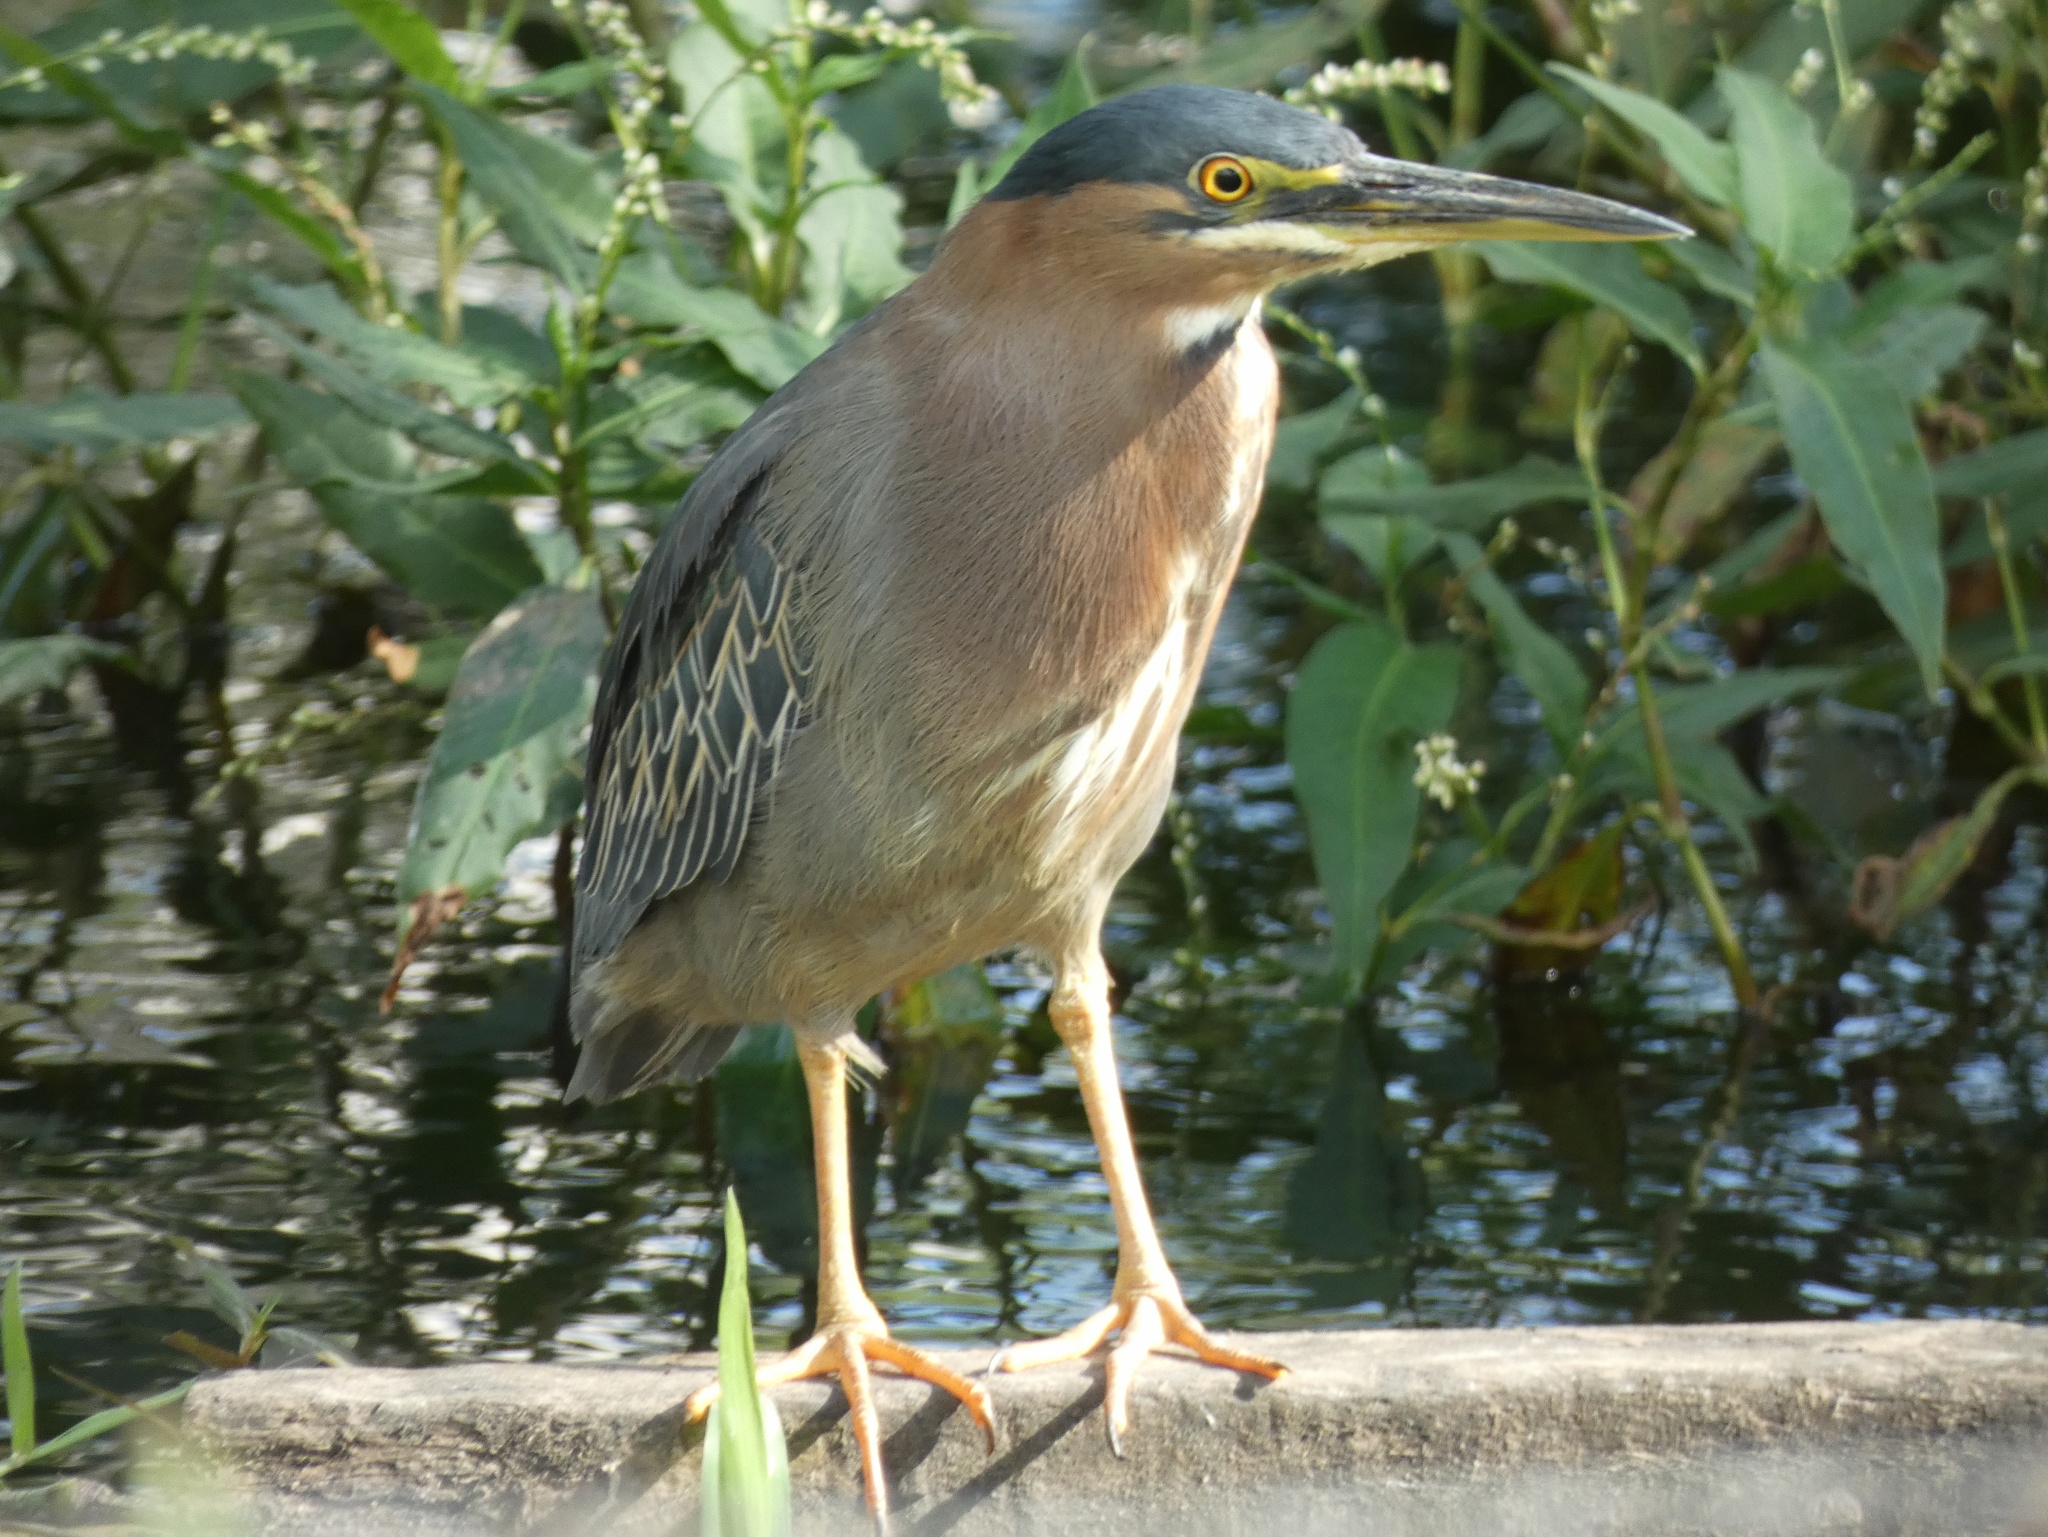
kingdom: Animalia
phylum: Chordata
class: Aves
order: Pelecaniformes
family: Ardeidae
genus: Butorides
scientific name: Butorides striata
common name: Striated heron
